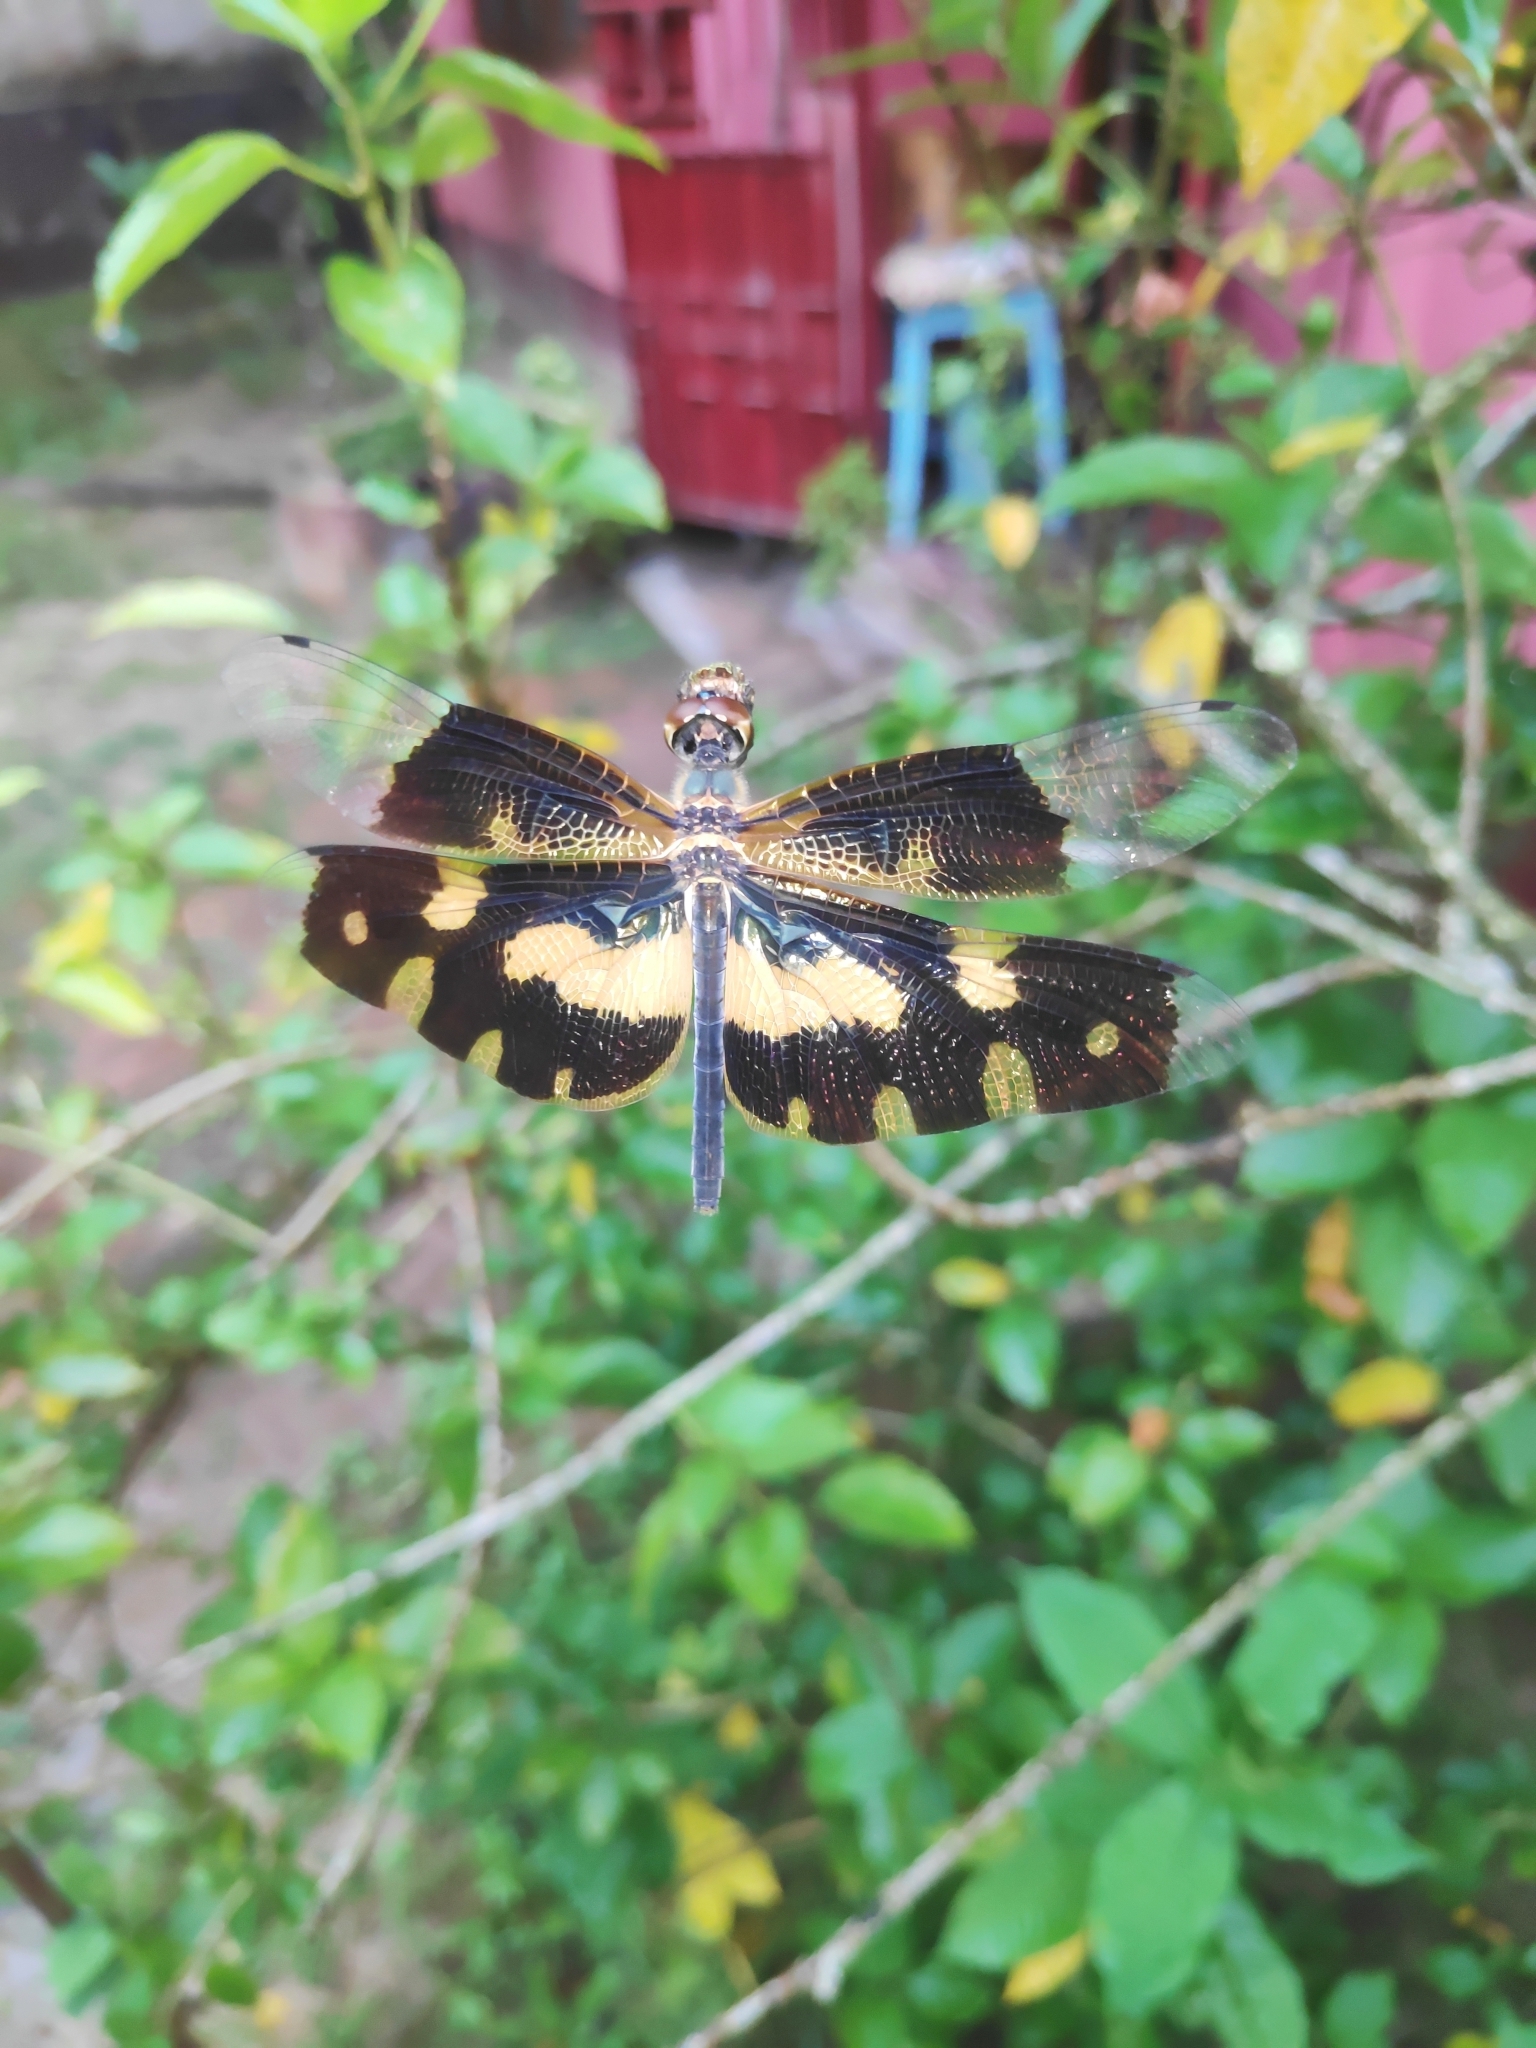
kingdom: Animalia
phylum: Arthropoda
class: Insecta
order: Odonata
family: Libellulidae
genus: Rhyothemis
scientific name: Rhyothemis variegata
